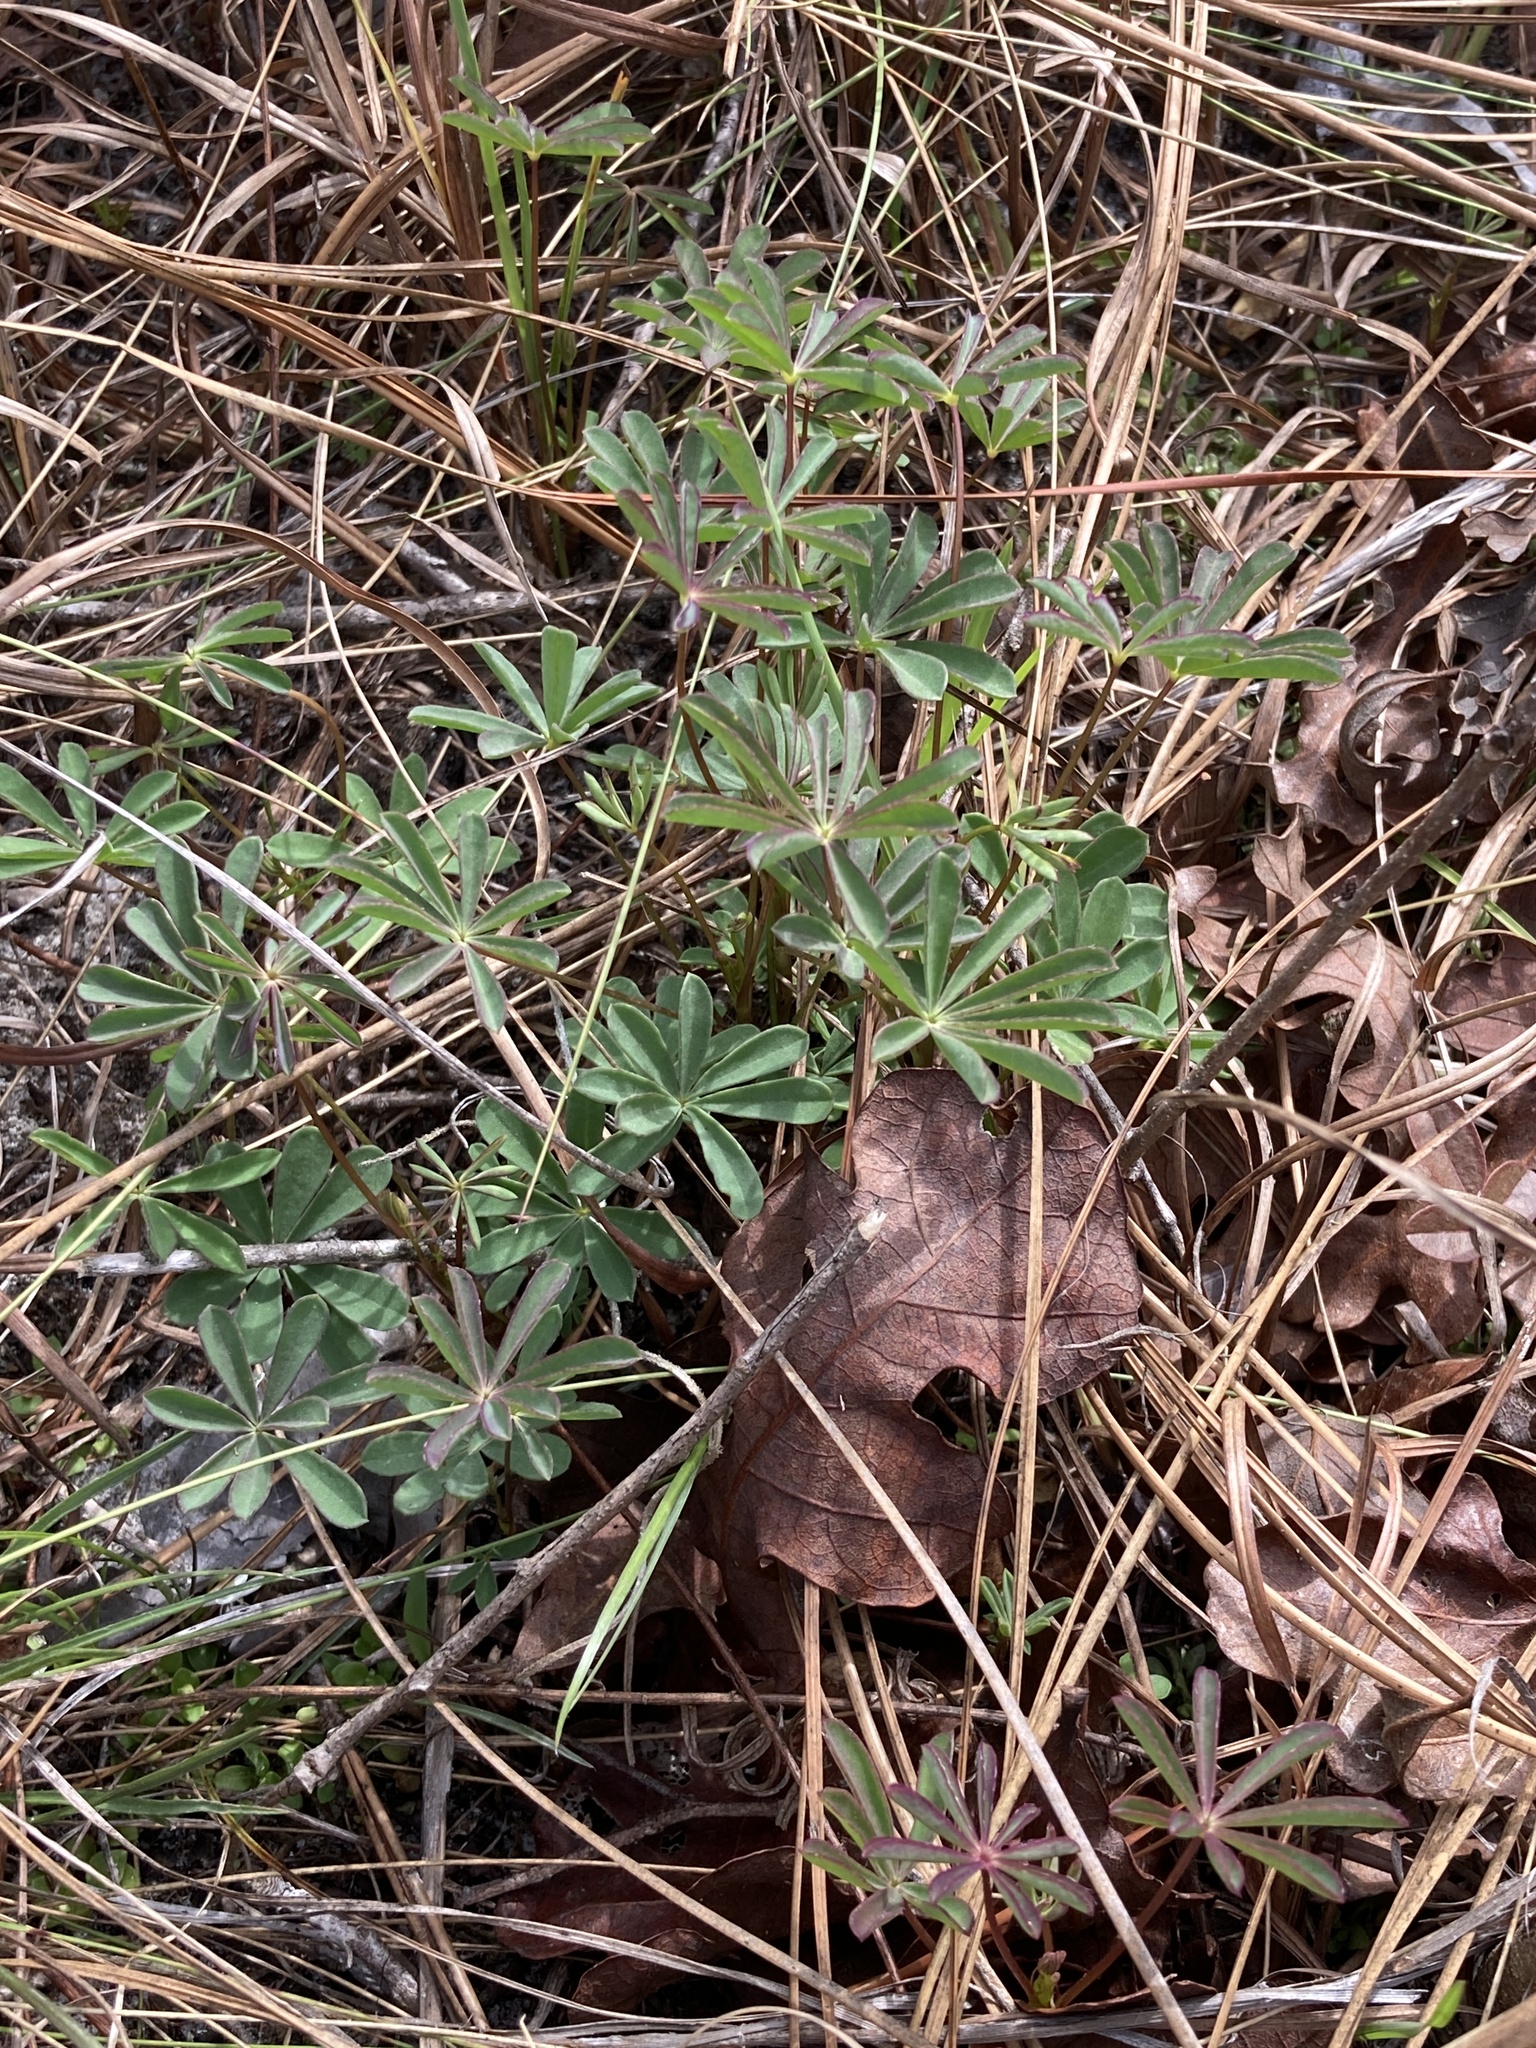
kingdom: Plantae
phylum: Tracheophyta
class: Magnoliopsida
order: Fabales
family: Fabaceae
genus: Lupinus
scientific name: Lupinus perennis
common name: Sundial lupine
